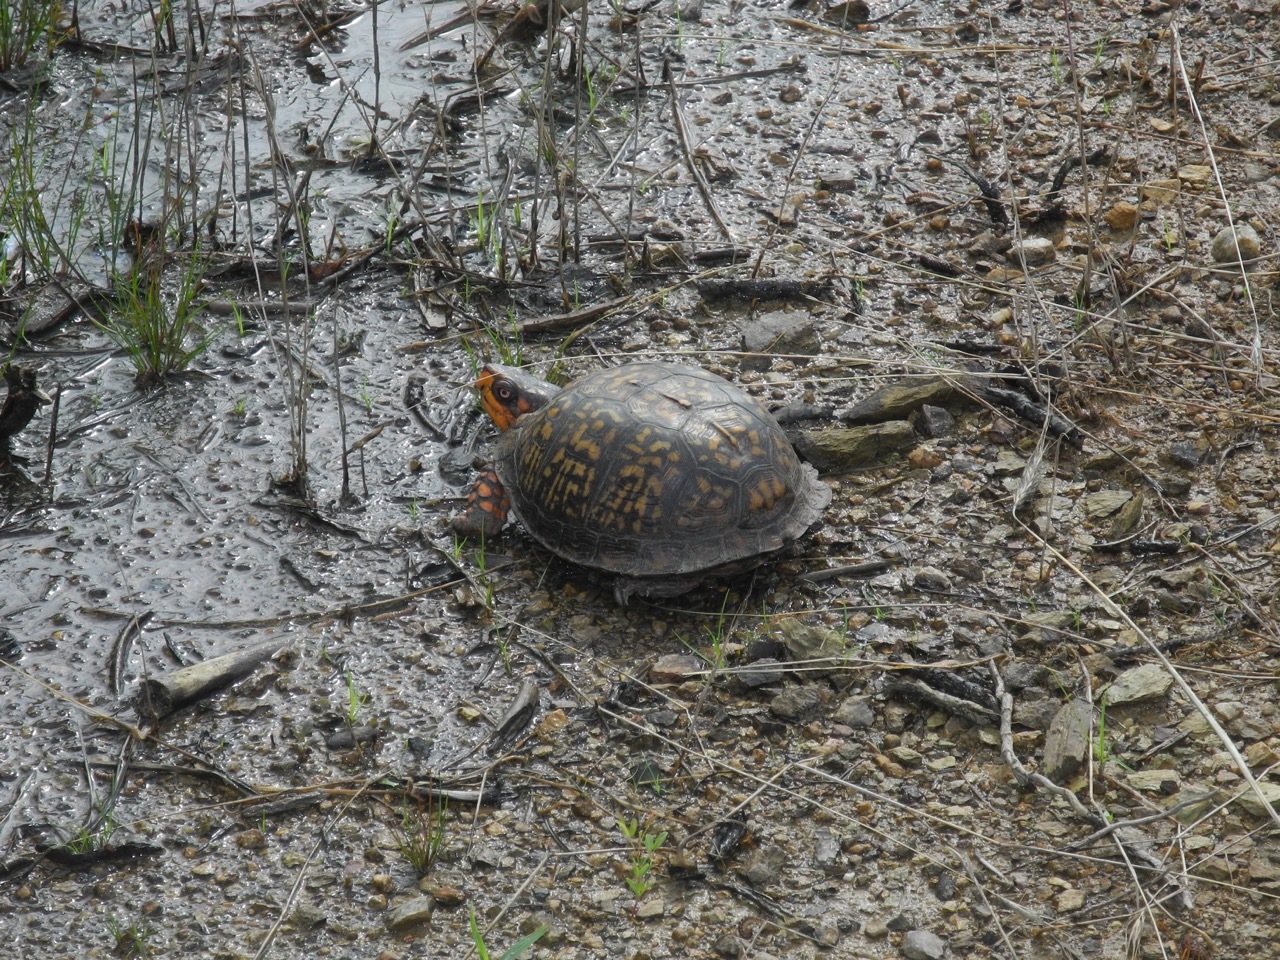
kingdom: Animalia
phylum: Chordata
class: Testudines
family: Emydidae
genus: Terrapene
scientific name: Terrapene carolina
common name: Common box turtle
